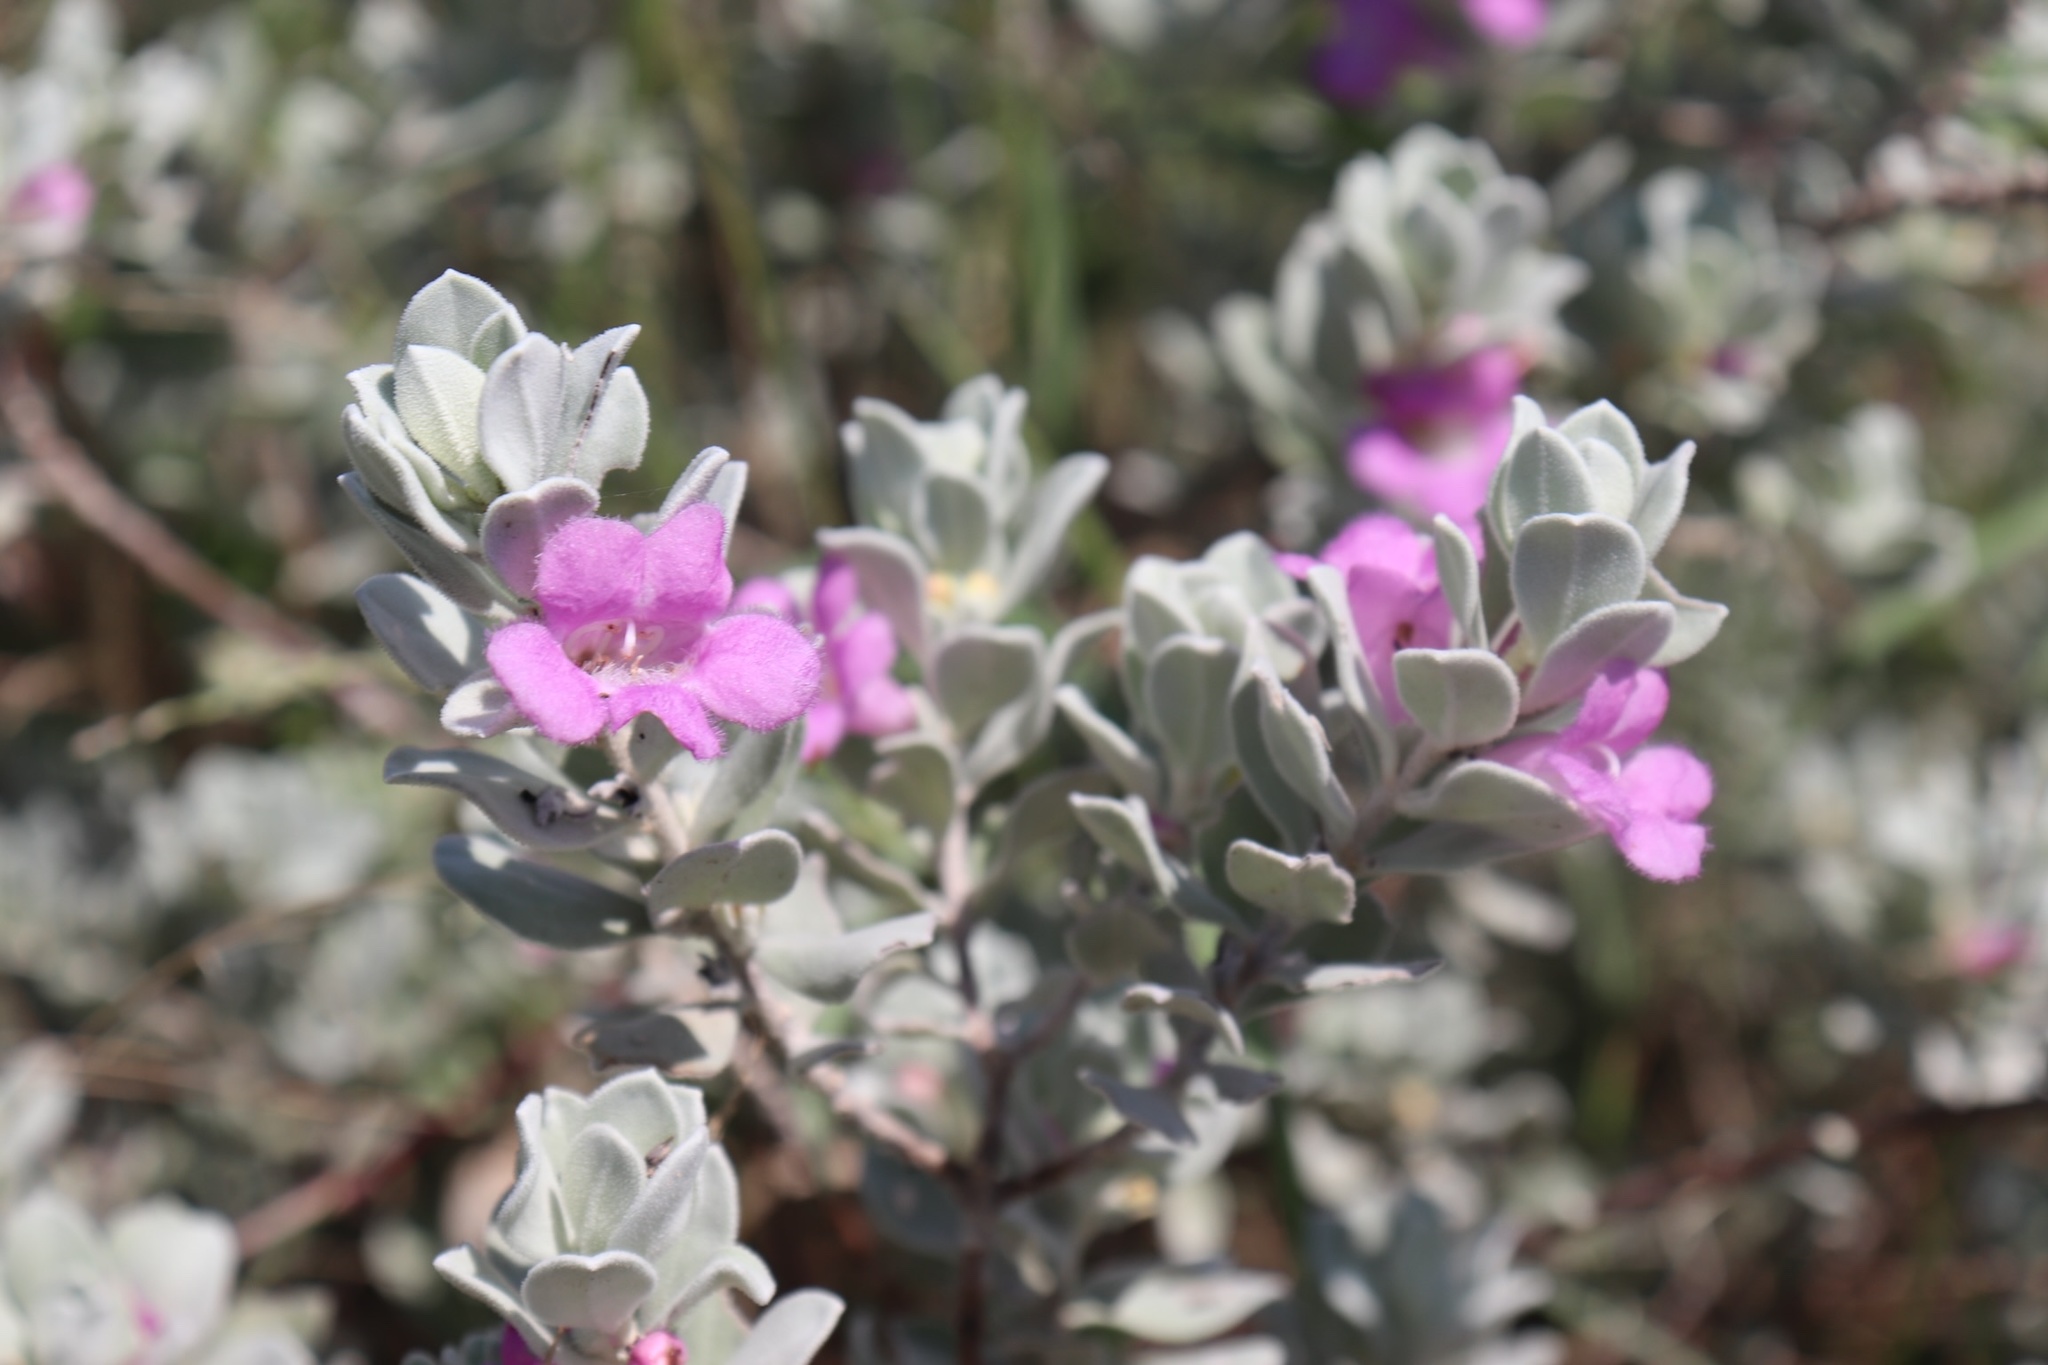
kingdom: Plantae
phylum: Tracheophyta
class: Magnoliopsida
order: Lamiales
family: Scrophulariaceae
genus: Leucophyllum
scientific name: Leucophyllum frutescens
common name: Texas silverleaf
